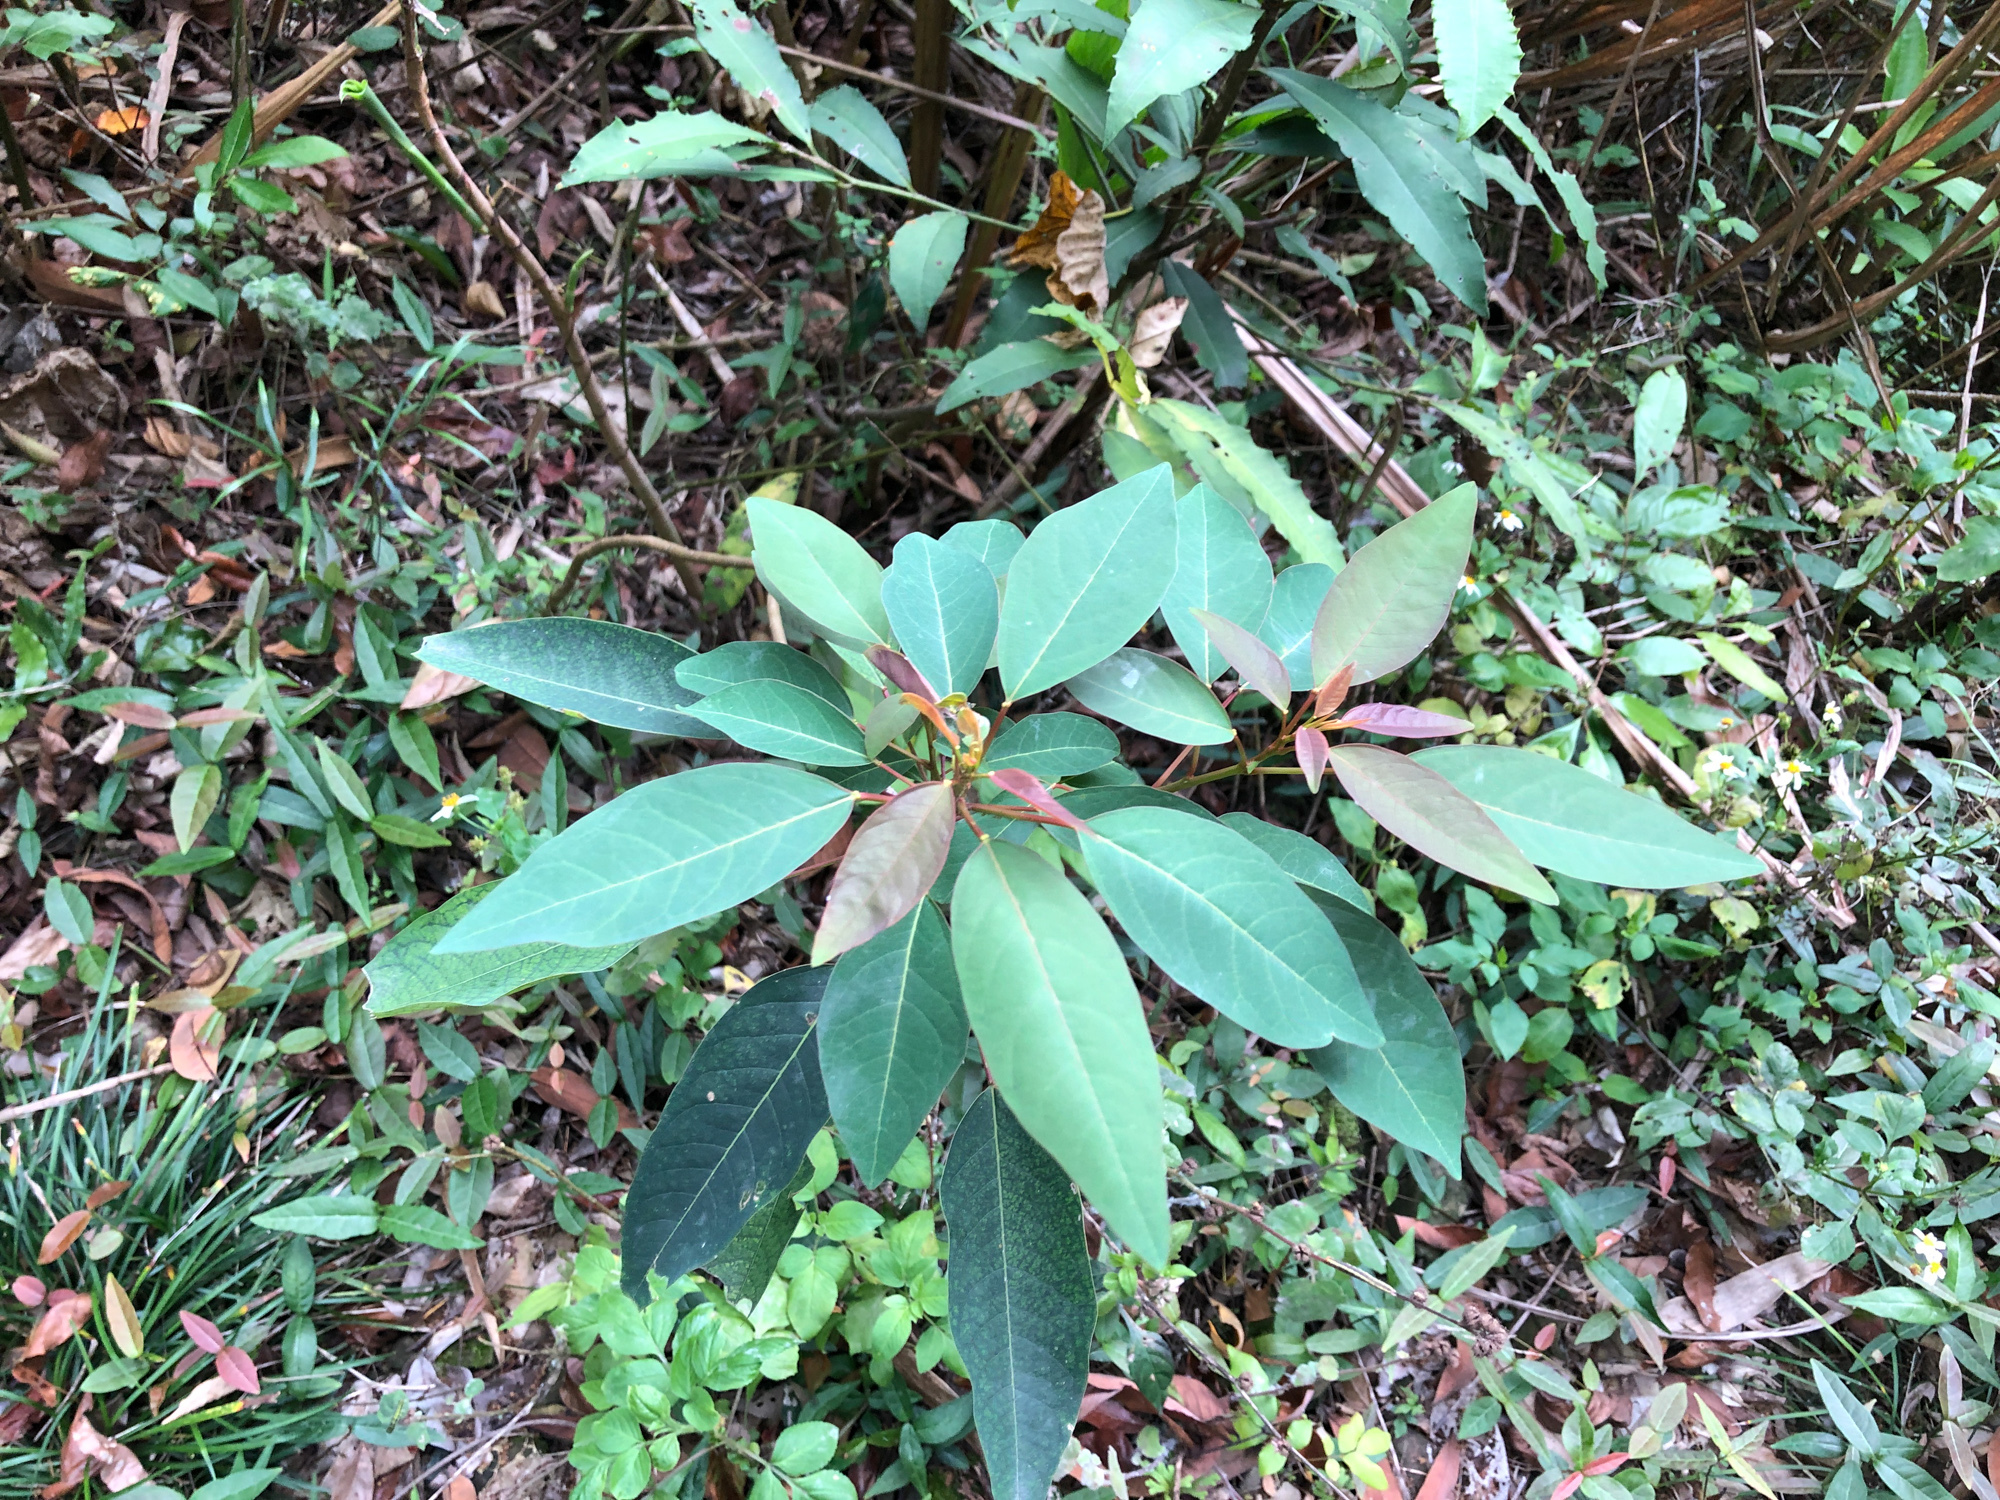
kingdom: Plantae
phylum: Tracheophyta
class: Magnoliopsida
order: Malpighiales
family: Euphorbiaceae
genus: Triadica
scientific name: Triadica cochinchinensis
